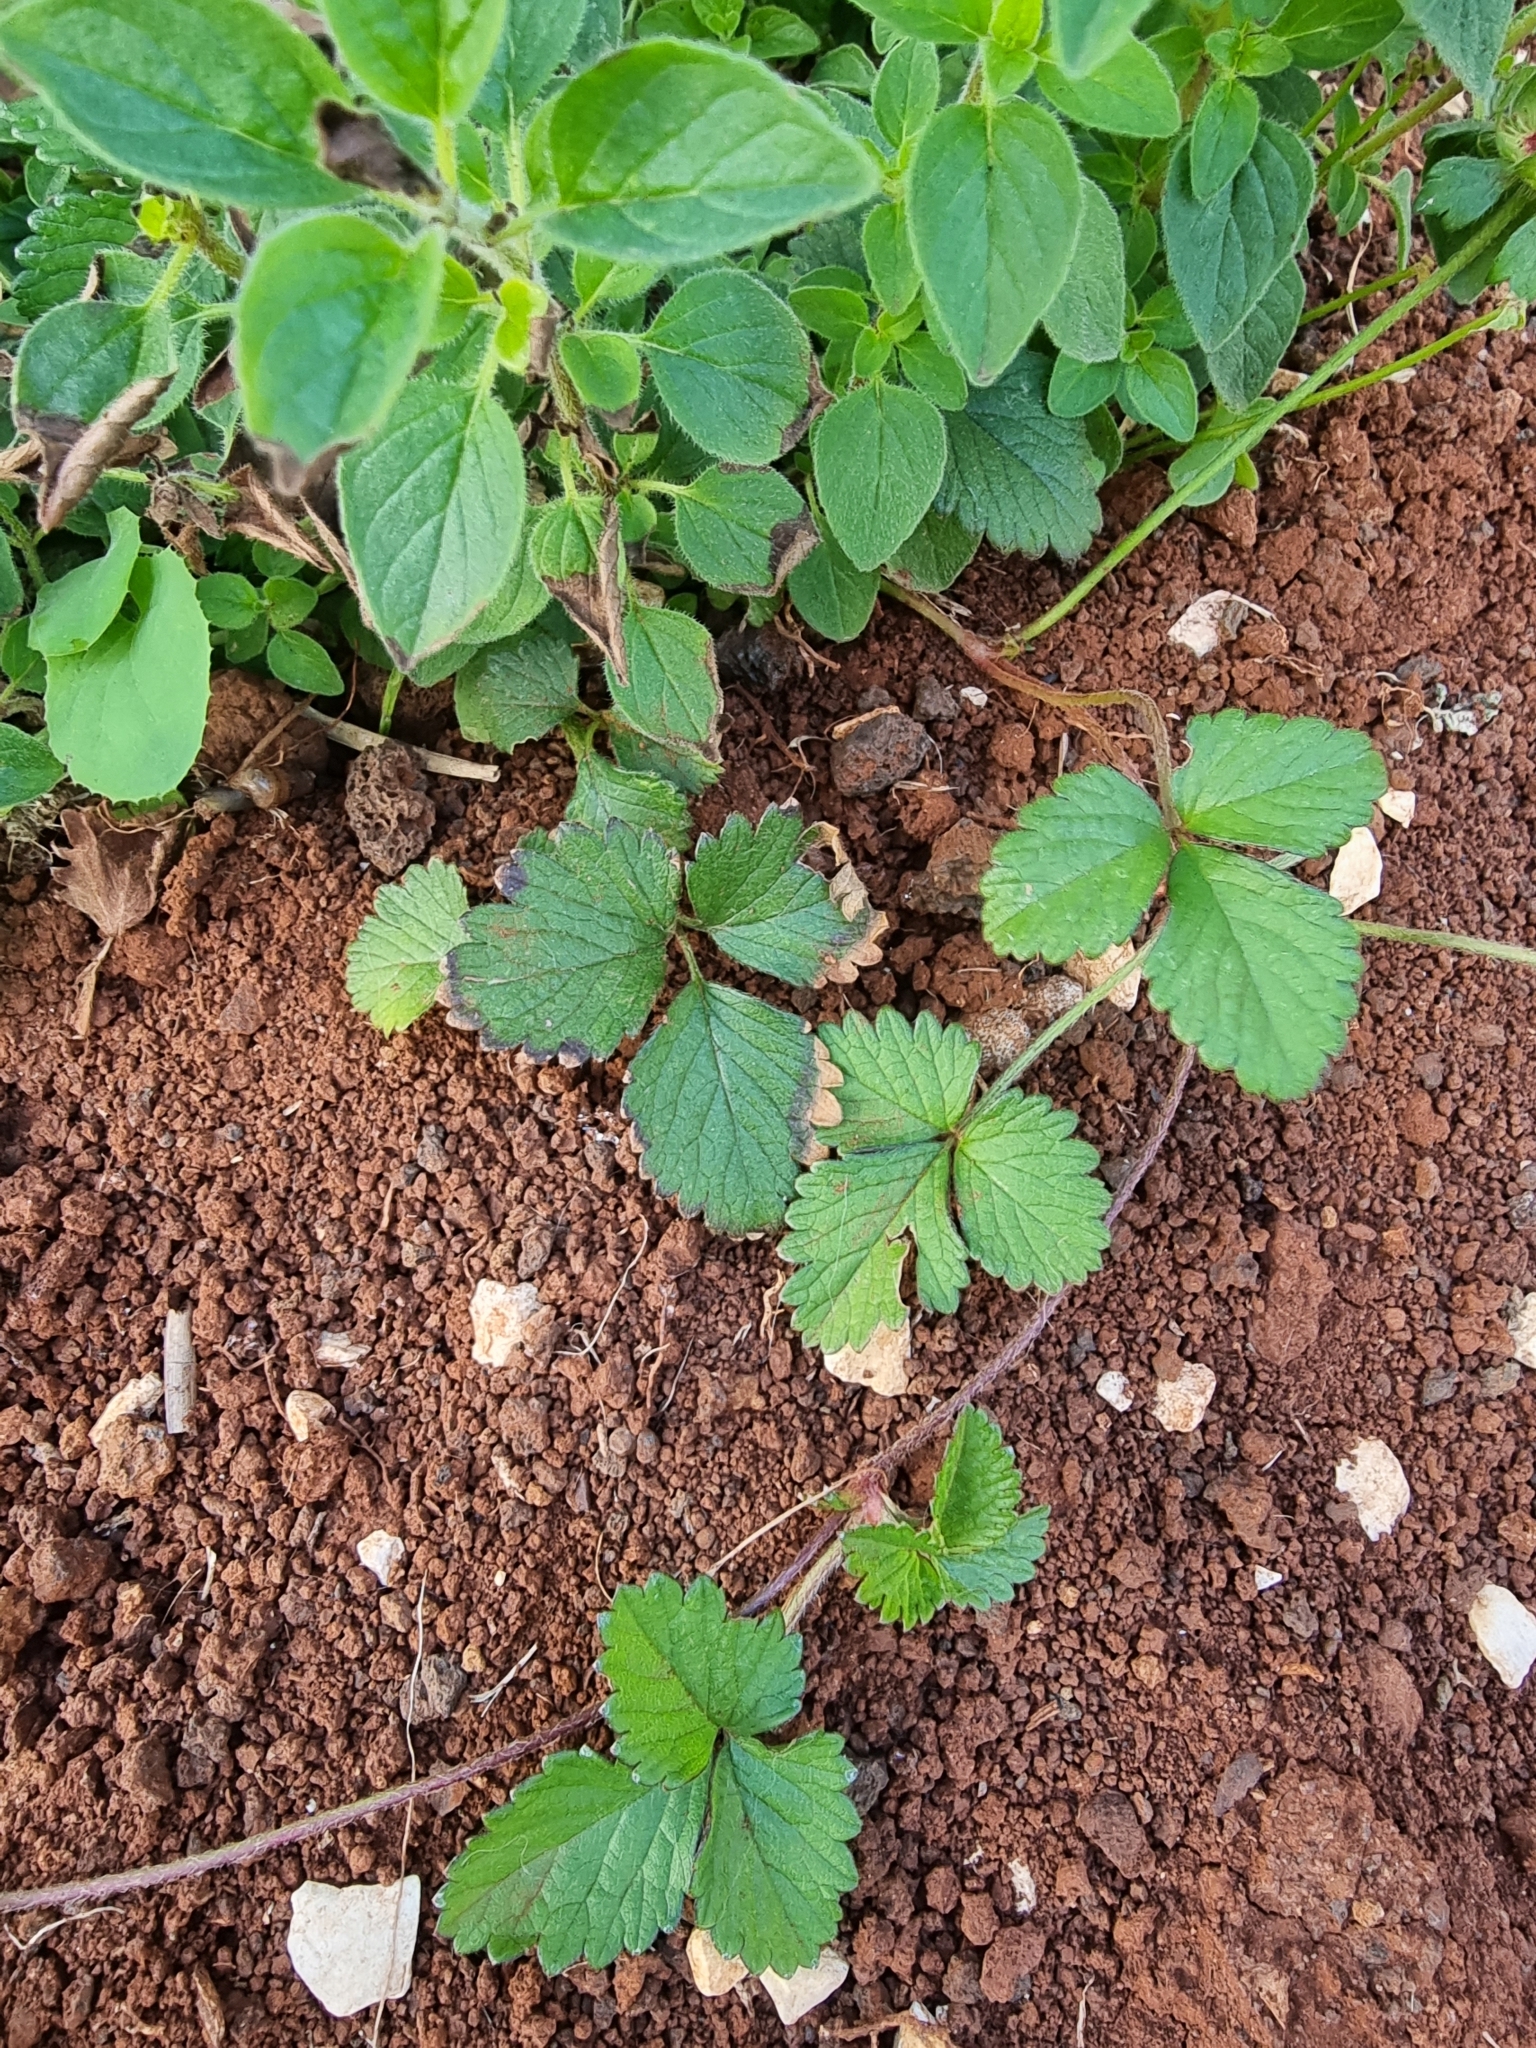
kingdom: Plantae
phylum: Tracheophyta
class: Magnoliopsida
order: Rosales
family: Rosaceae
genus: Potentilla
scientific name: Potentilla indica
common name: Yellow-flowered strawberry
